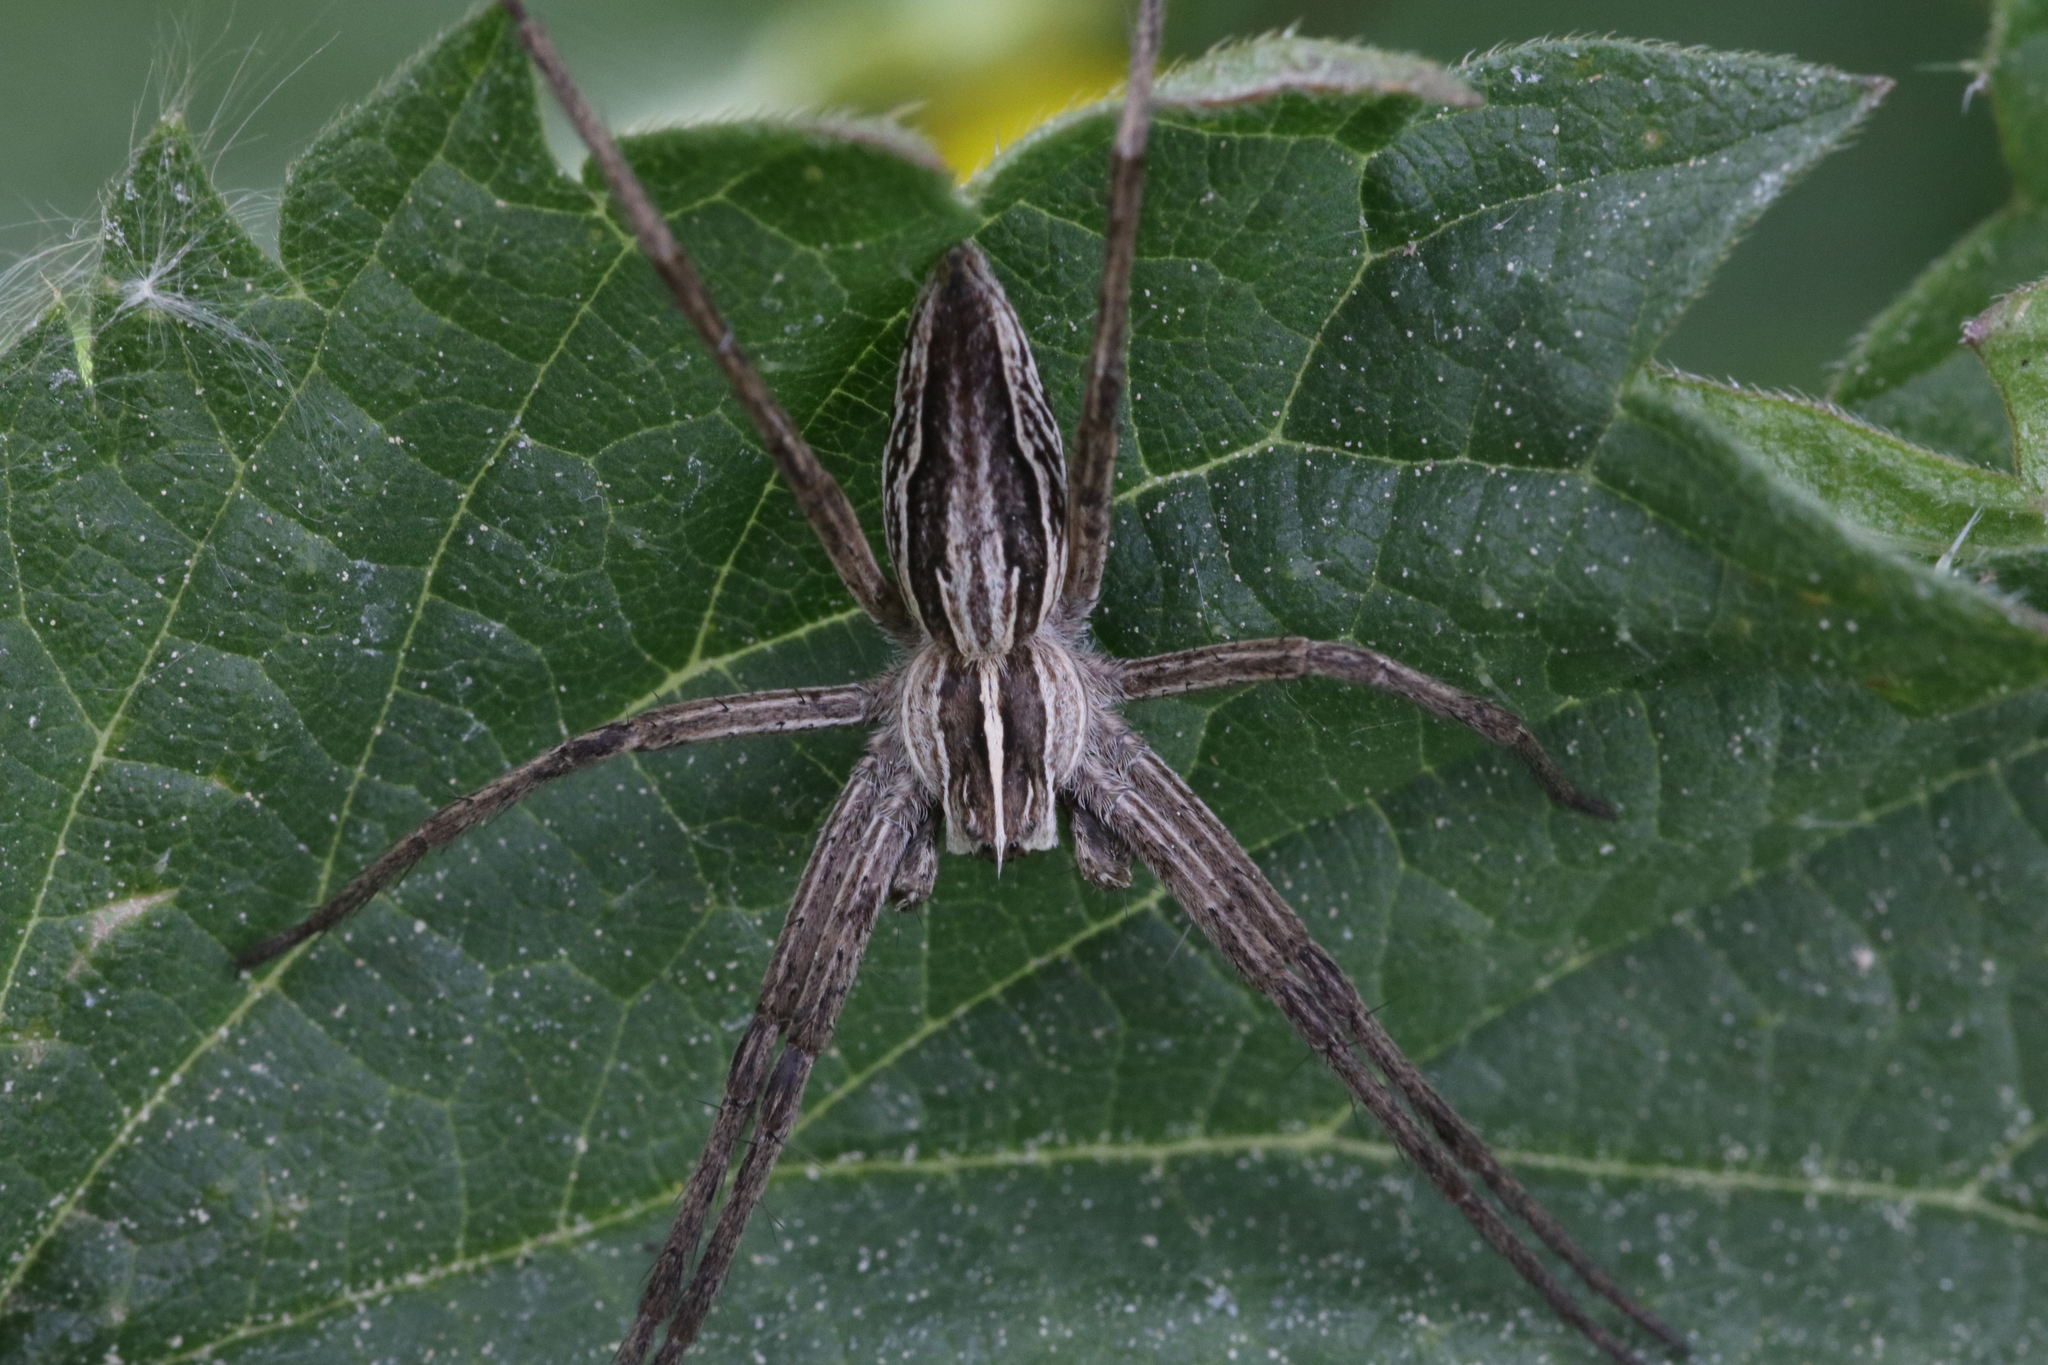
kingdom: Animalia
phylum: Arthropoda
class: Arachnida
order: Araneae
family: Pisauridae
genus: Pisaura
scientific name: Pisaura mirabilis
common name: Tent spider
